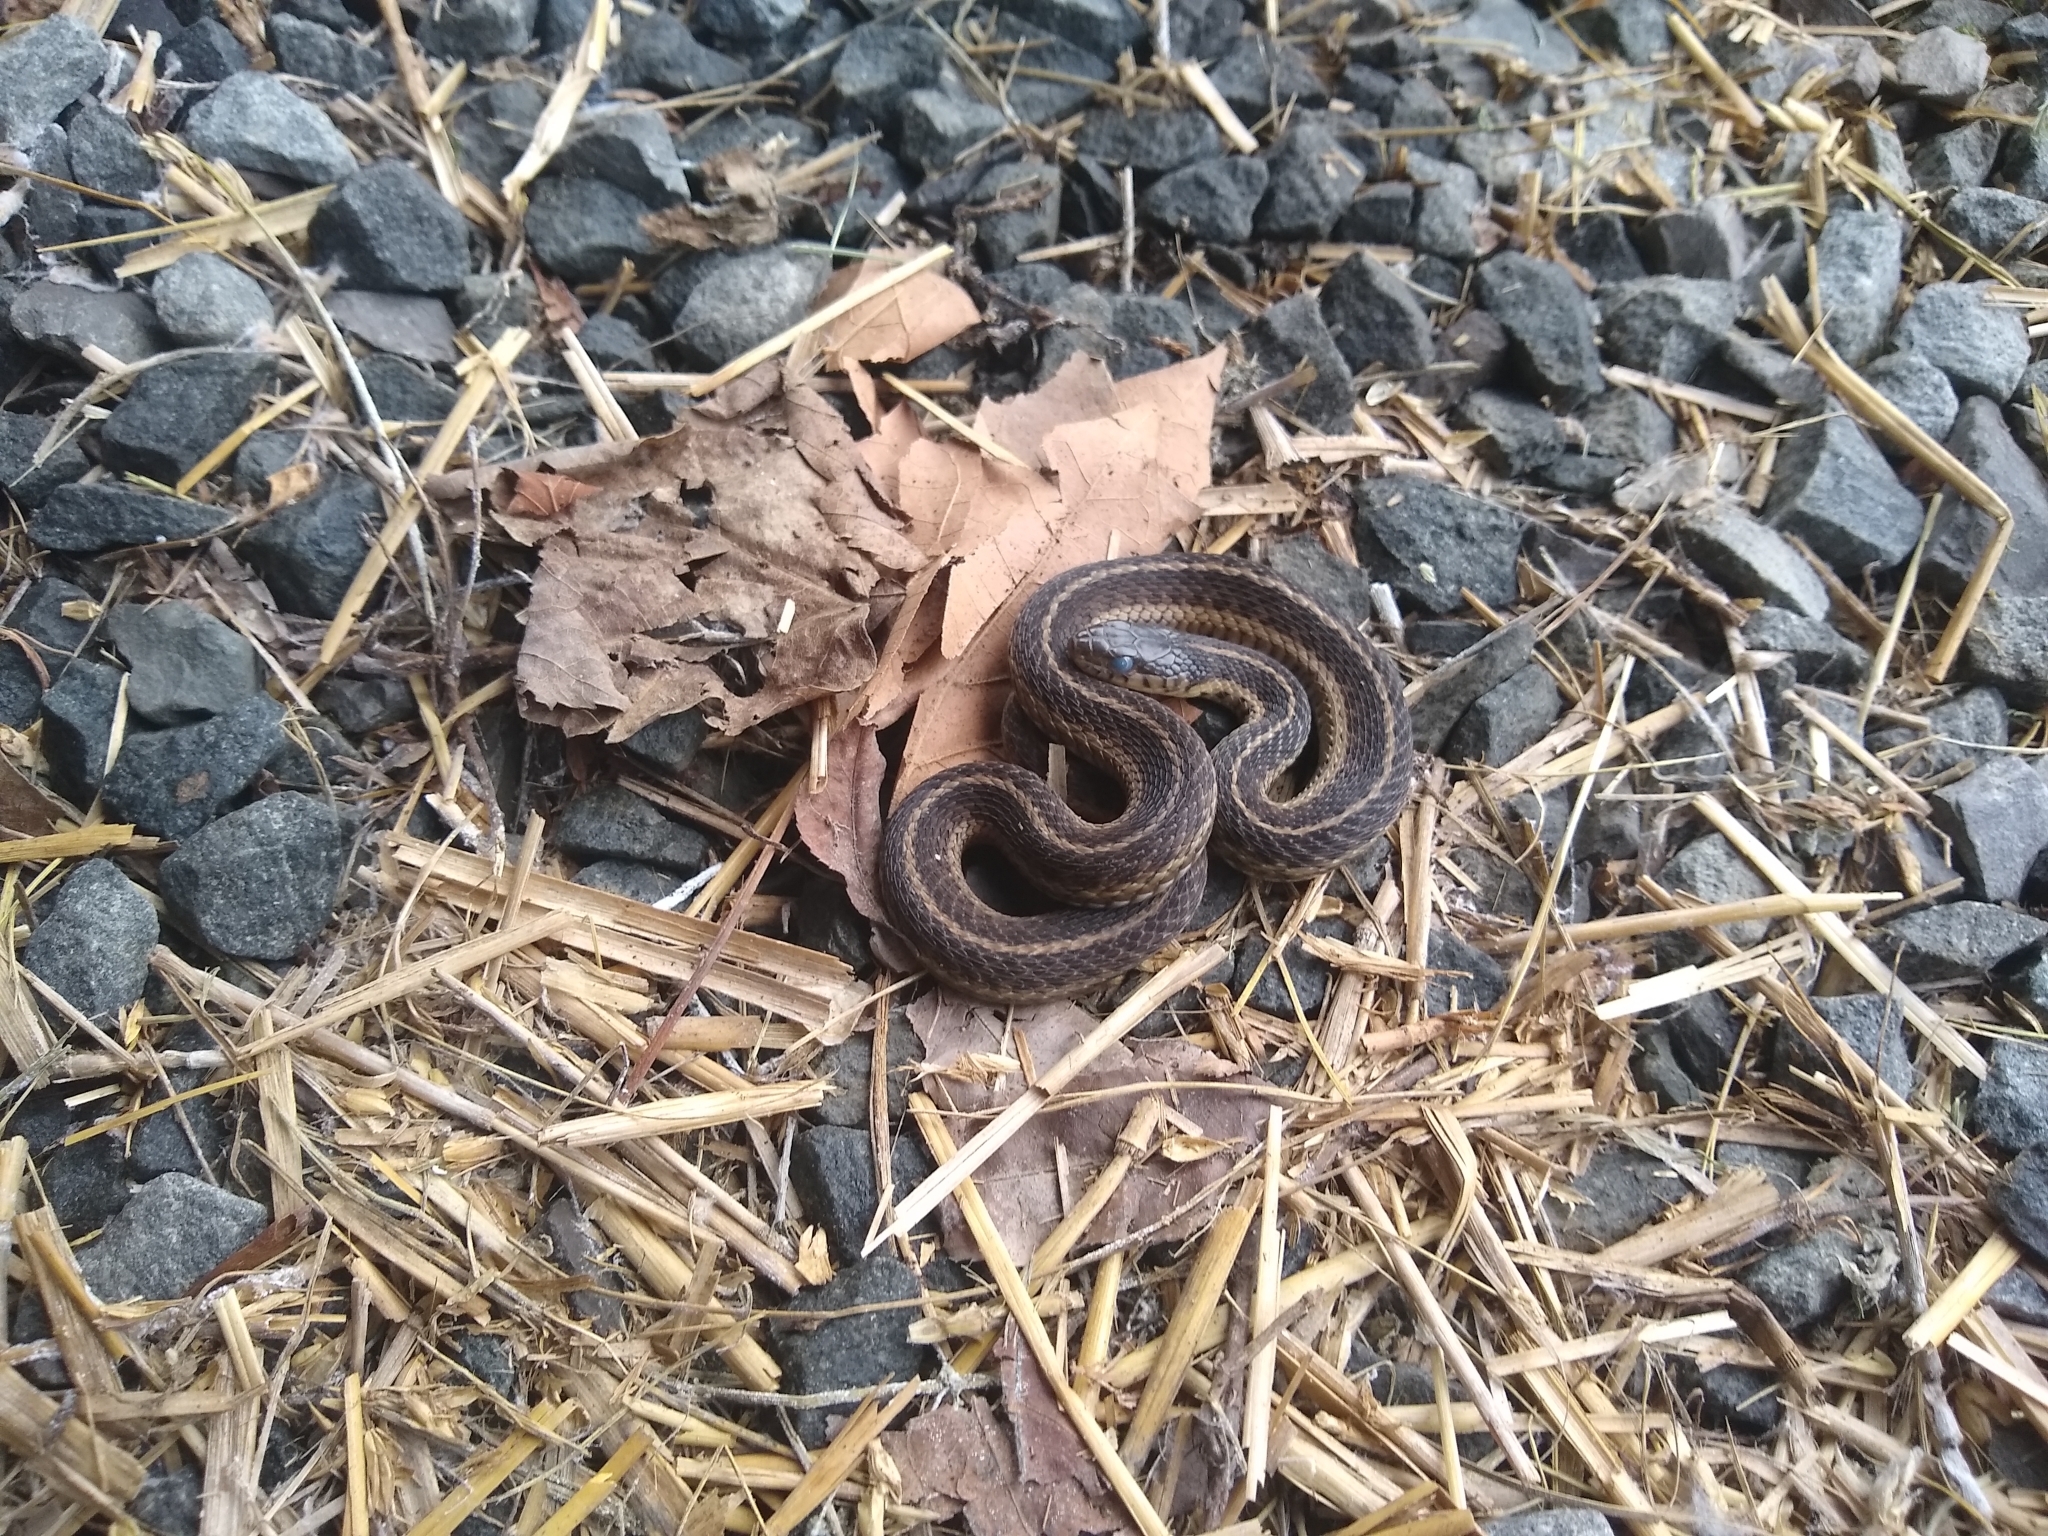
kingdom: Animalia
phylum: Chordata
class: Squamata
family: Colubridae
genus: Thamnophis
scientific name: Thamnophis sirtalis
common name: Common garter snake
